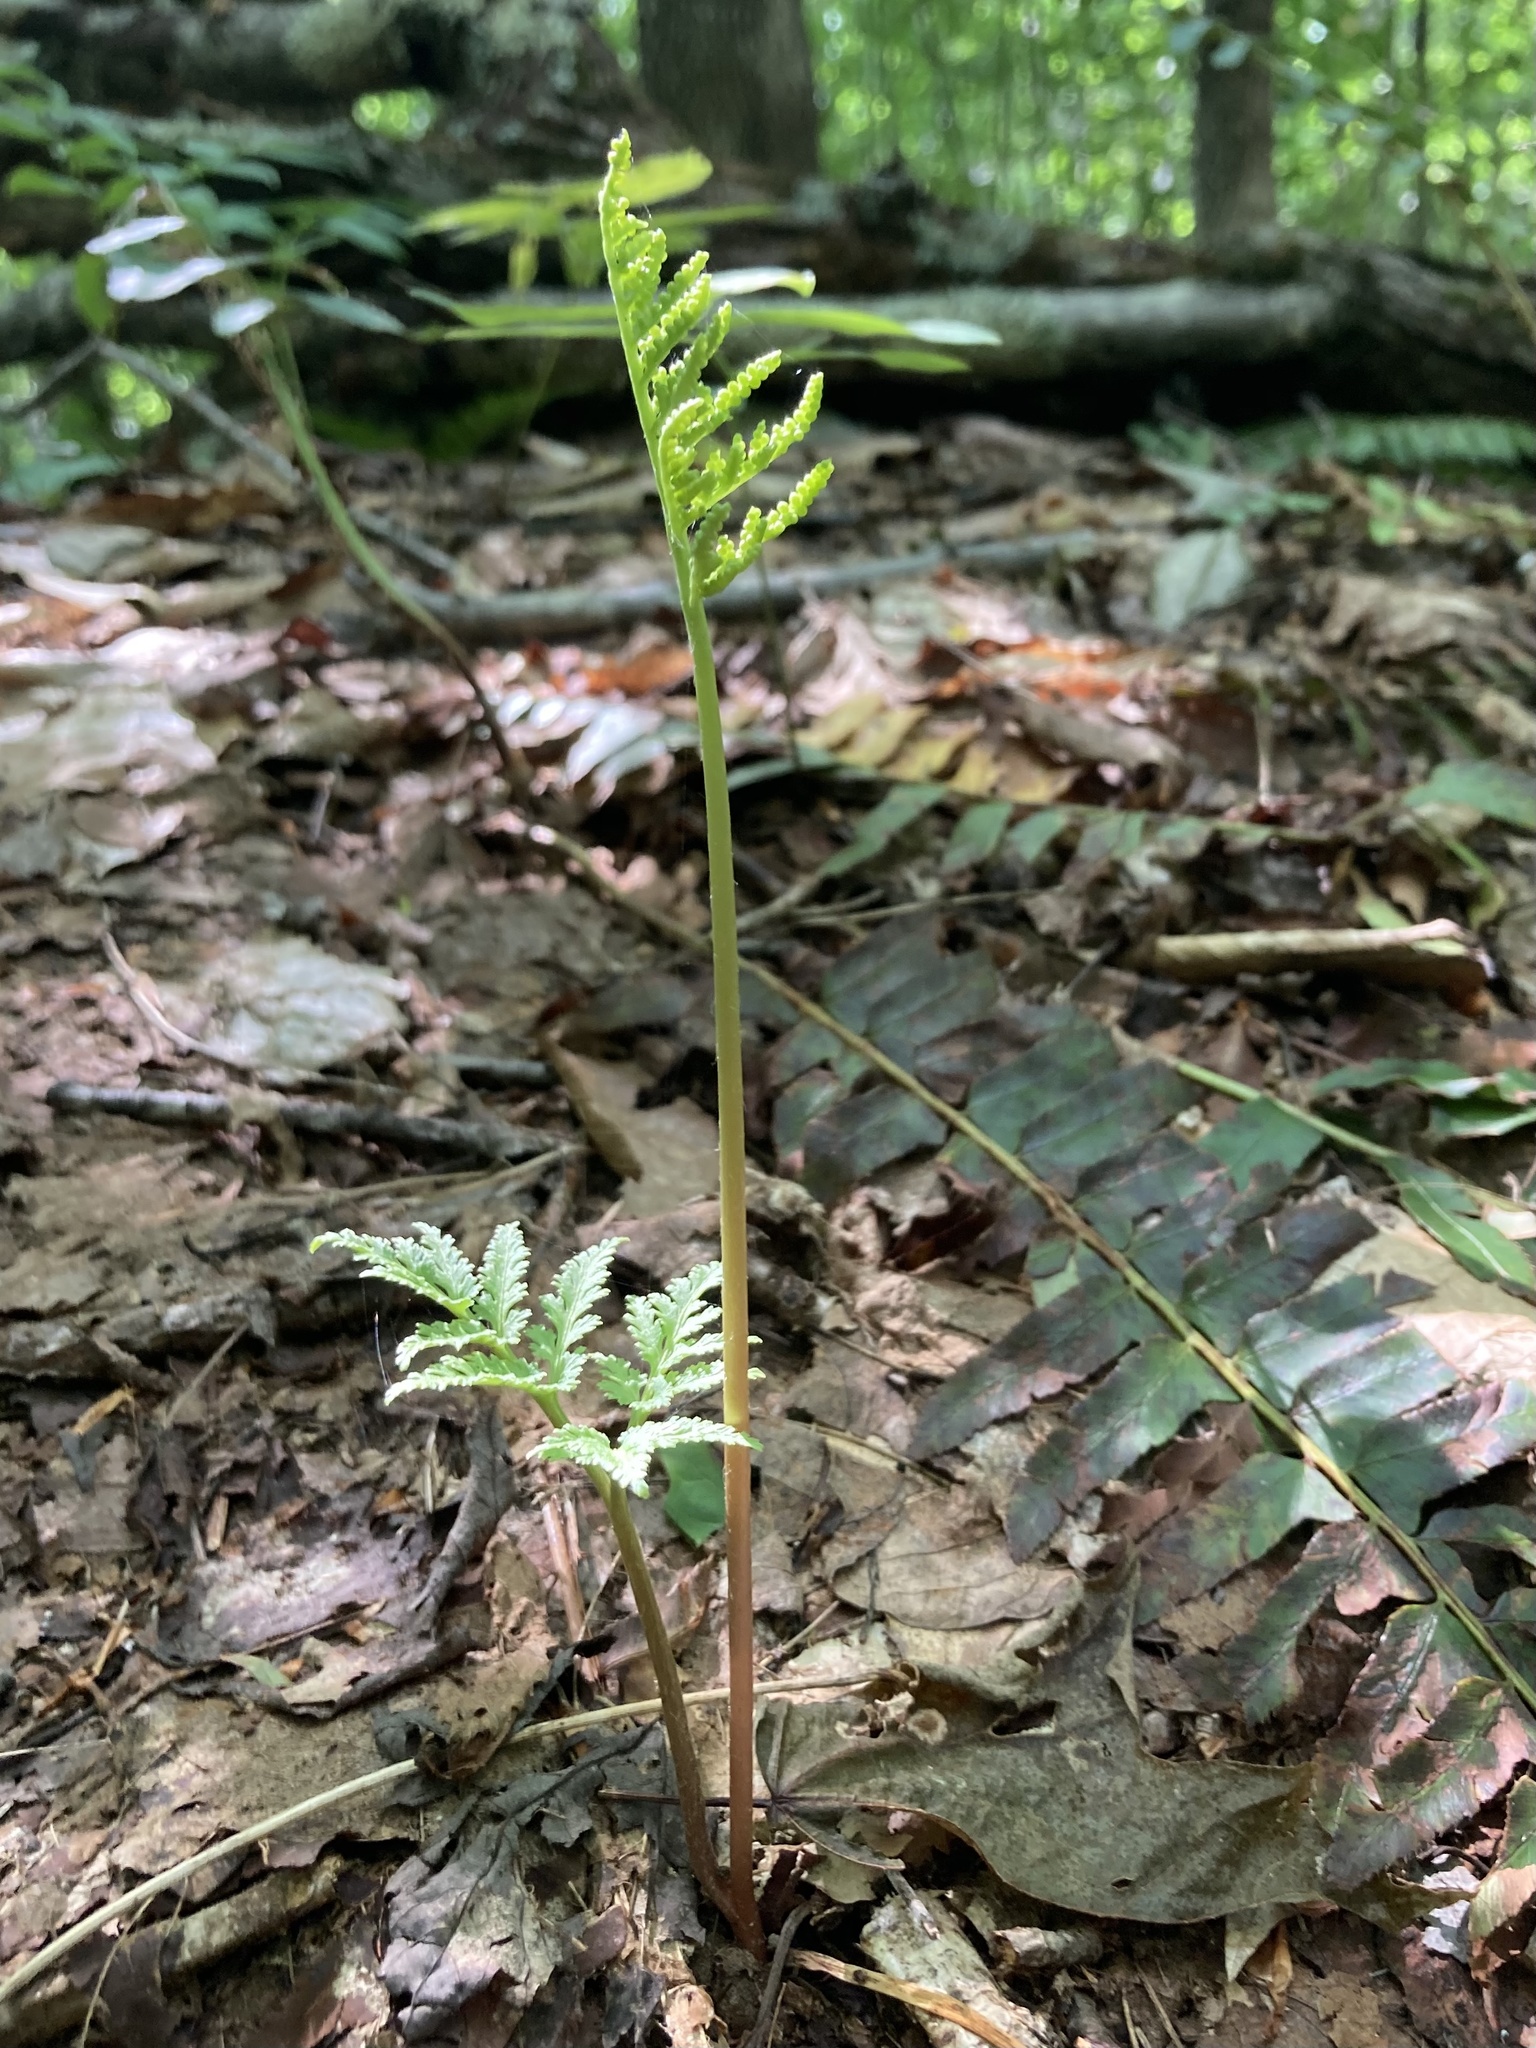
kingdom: Plantae
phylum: Tracheophyta
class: Polypodiopsida
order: Ophioglossales
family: Ophioglossaceae
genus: Sceptridium
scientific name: Sceptridium dissectum
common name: Cut-leaved grapefern
